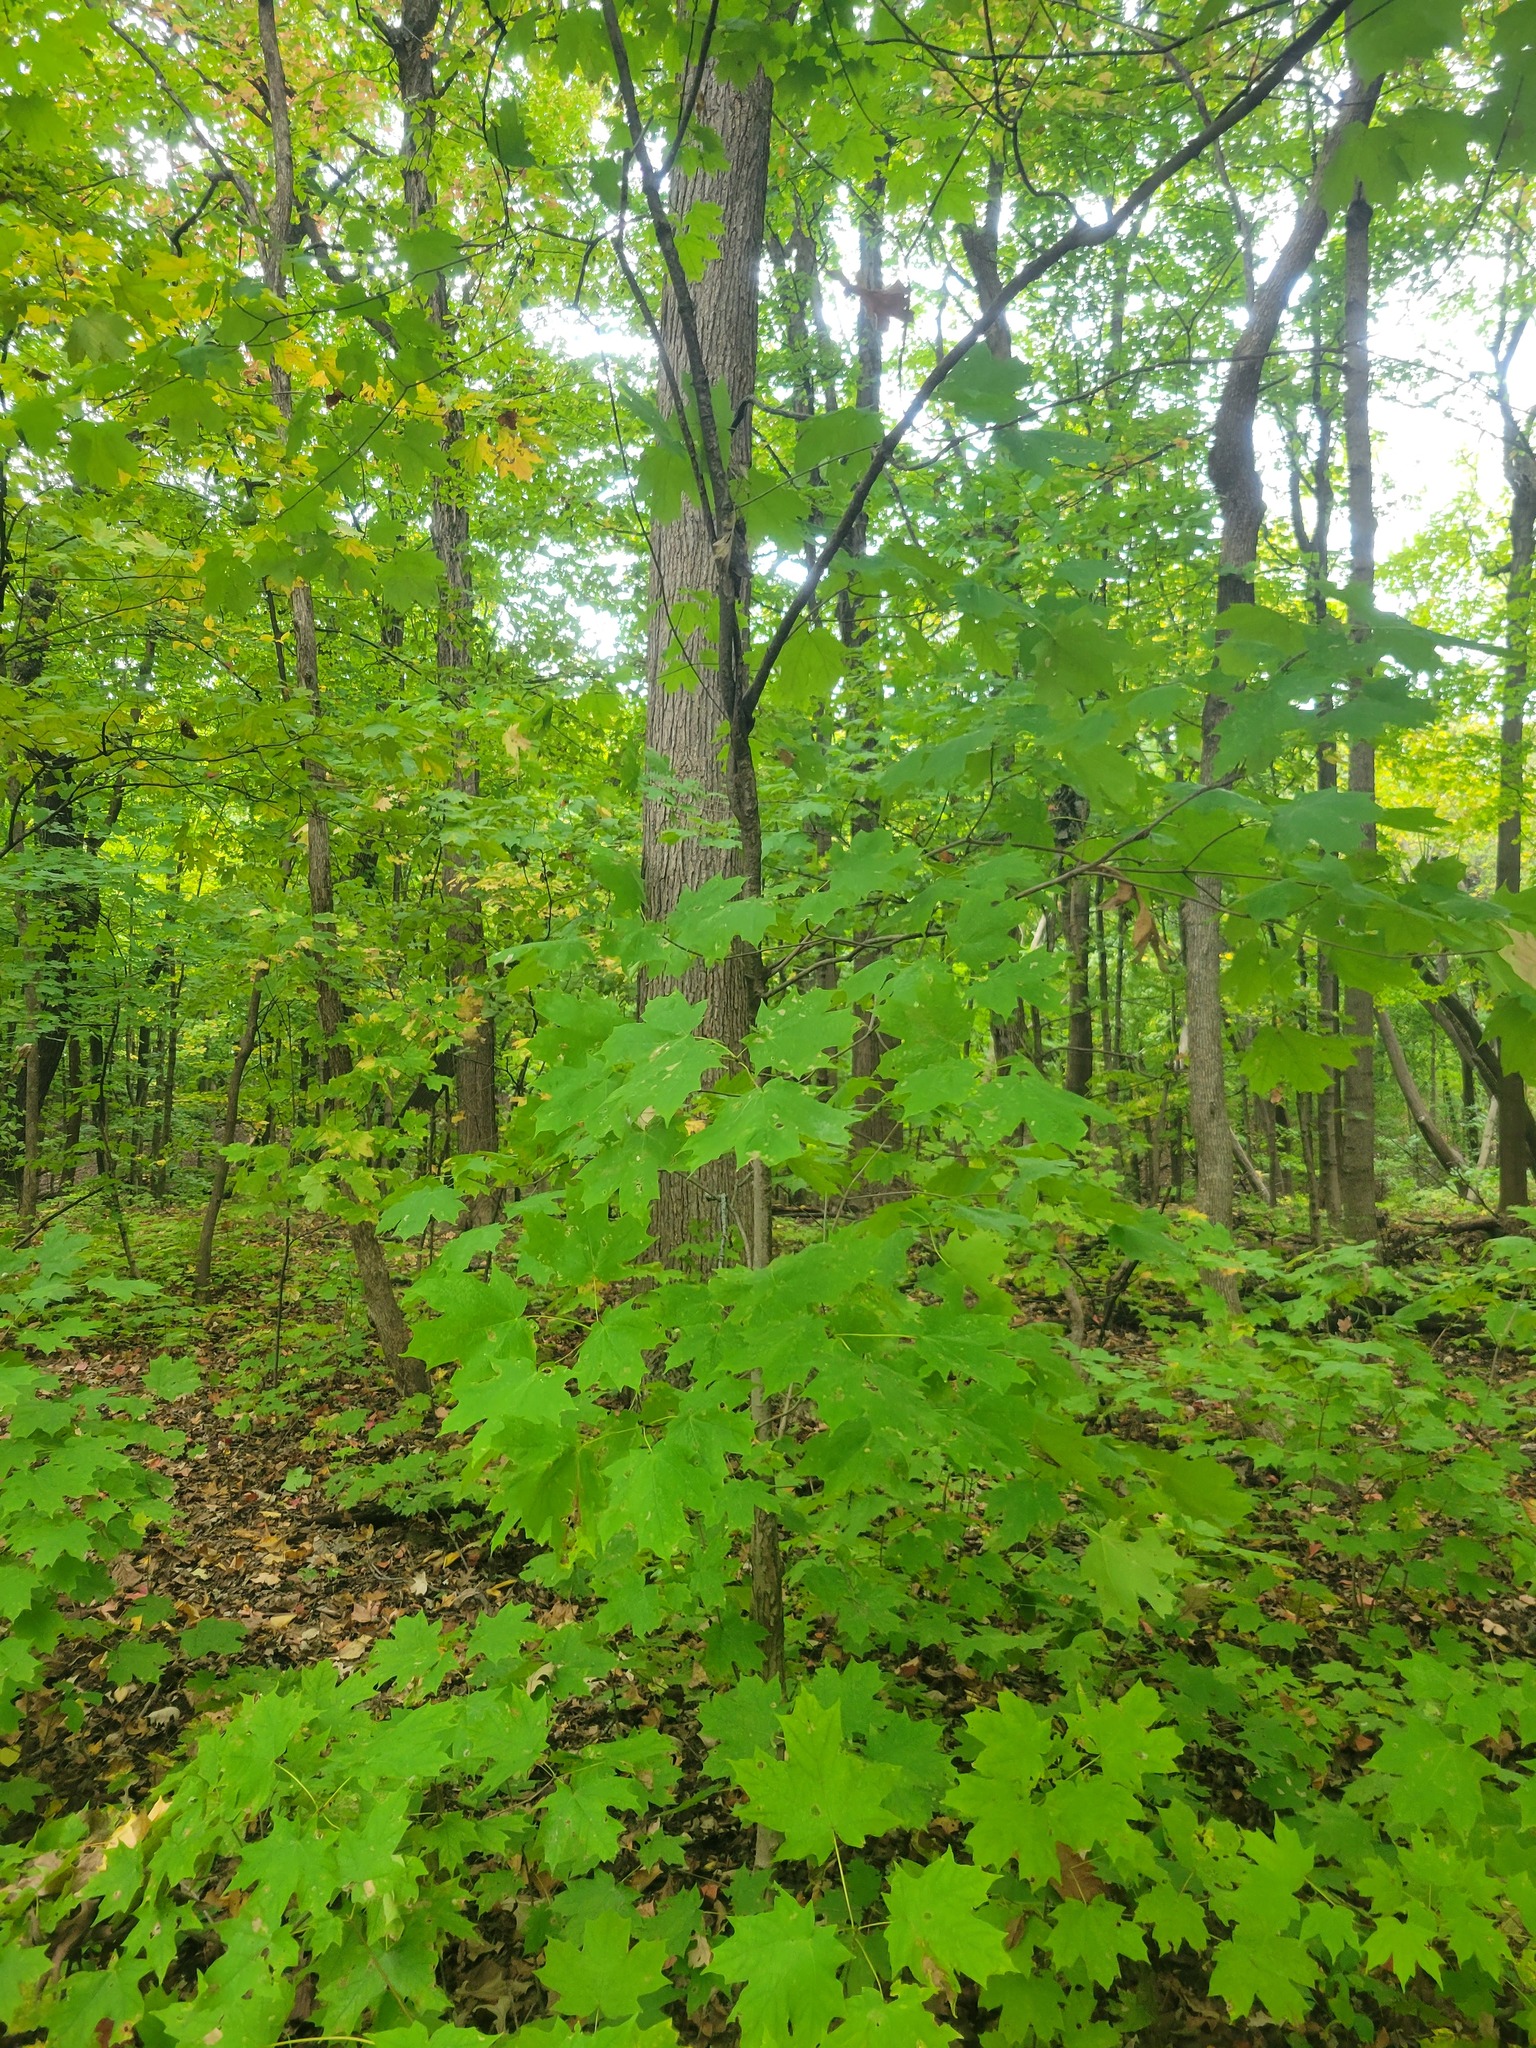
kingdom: Plantae
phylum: Tracheophyta
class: Magnoliopsida
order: Sapindales
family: Sapindaceae
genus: Acer
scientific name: Acer saccharum
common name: Sugar maple
